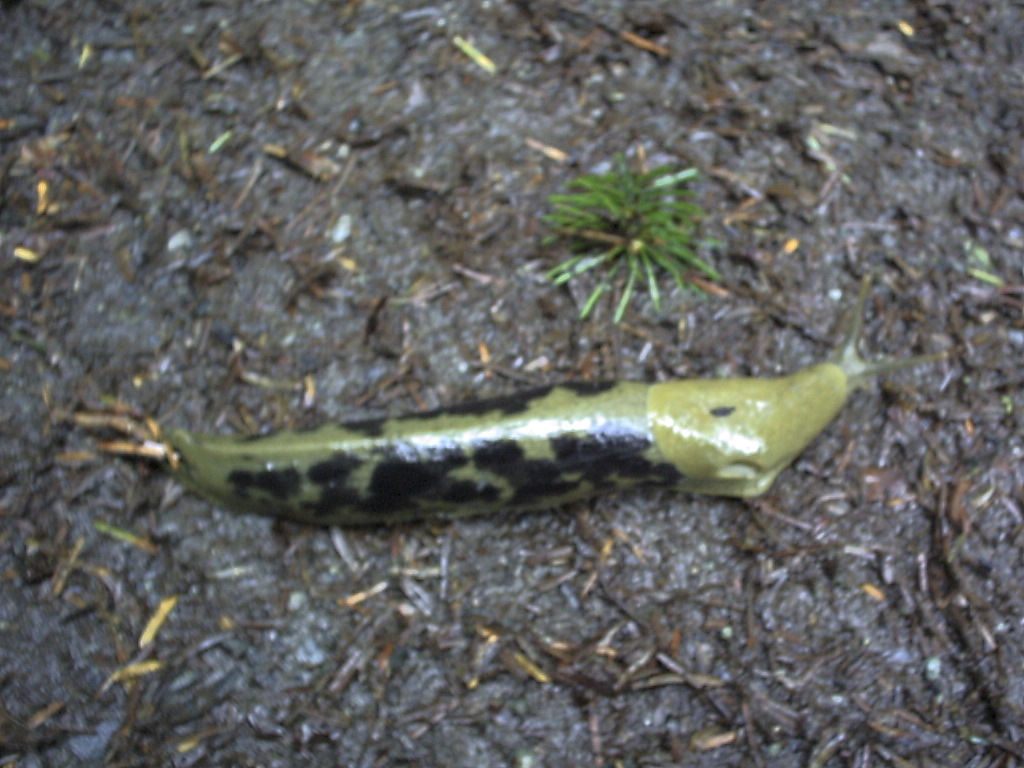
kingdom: Animalia
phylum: Mollusca
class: Gastropoda
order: Stylommatophora
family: Ariolimacidae
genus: Ariolimax
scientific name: Ariolimax columbianus
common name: Pacific banana slug
